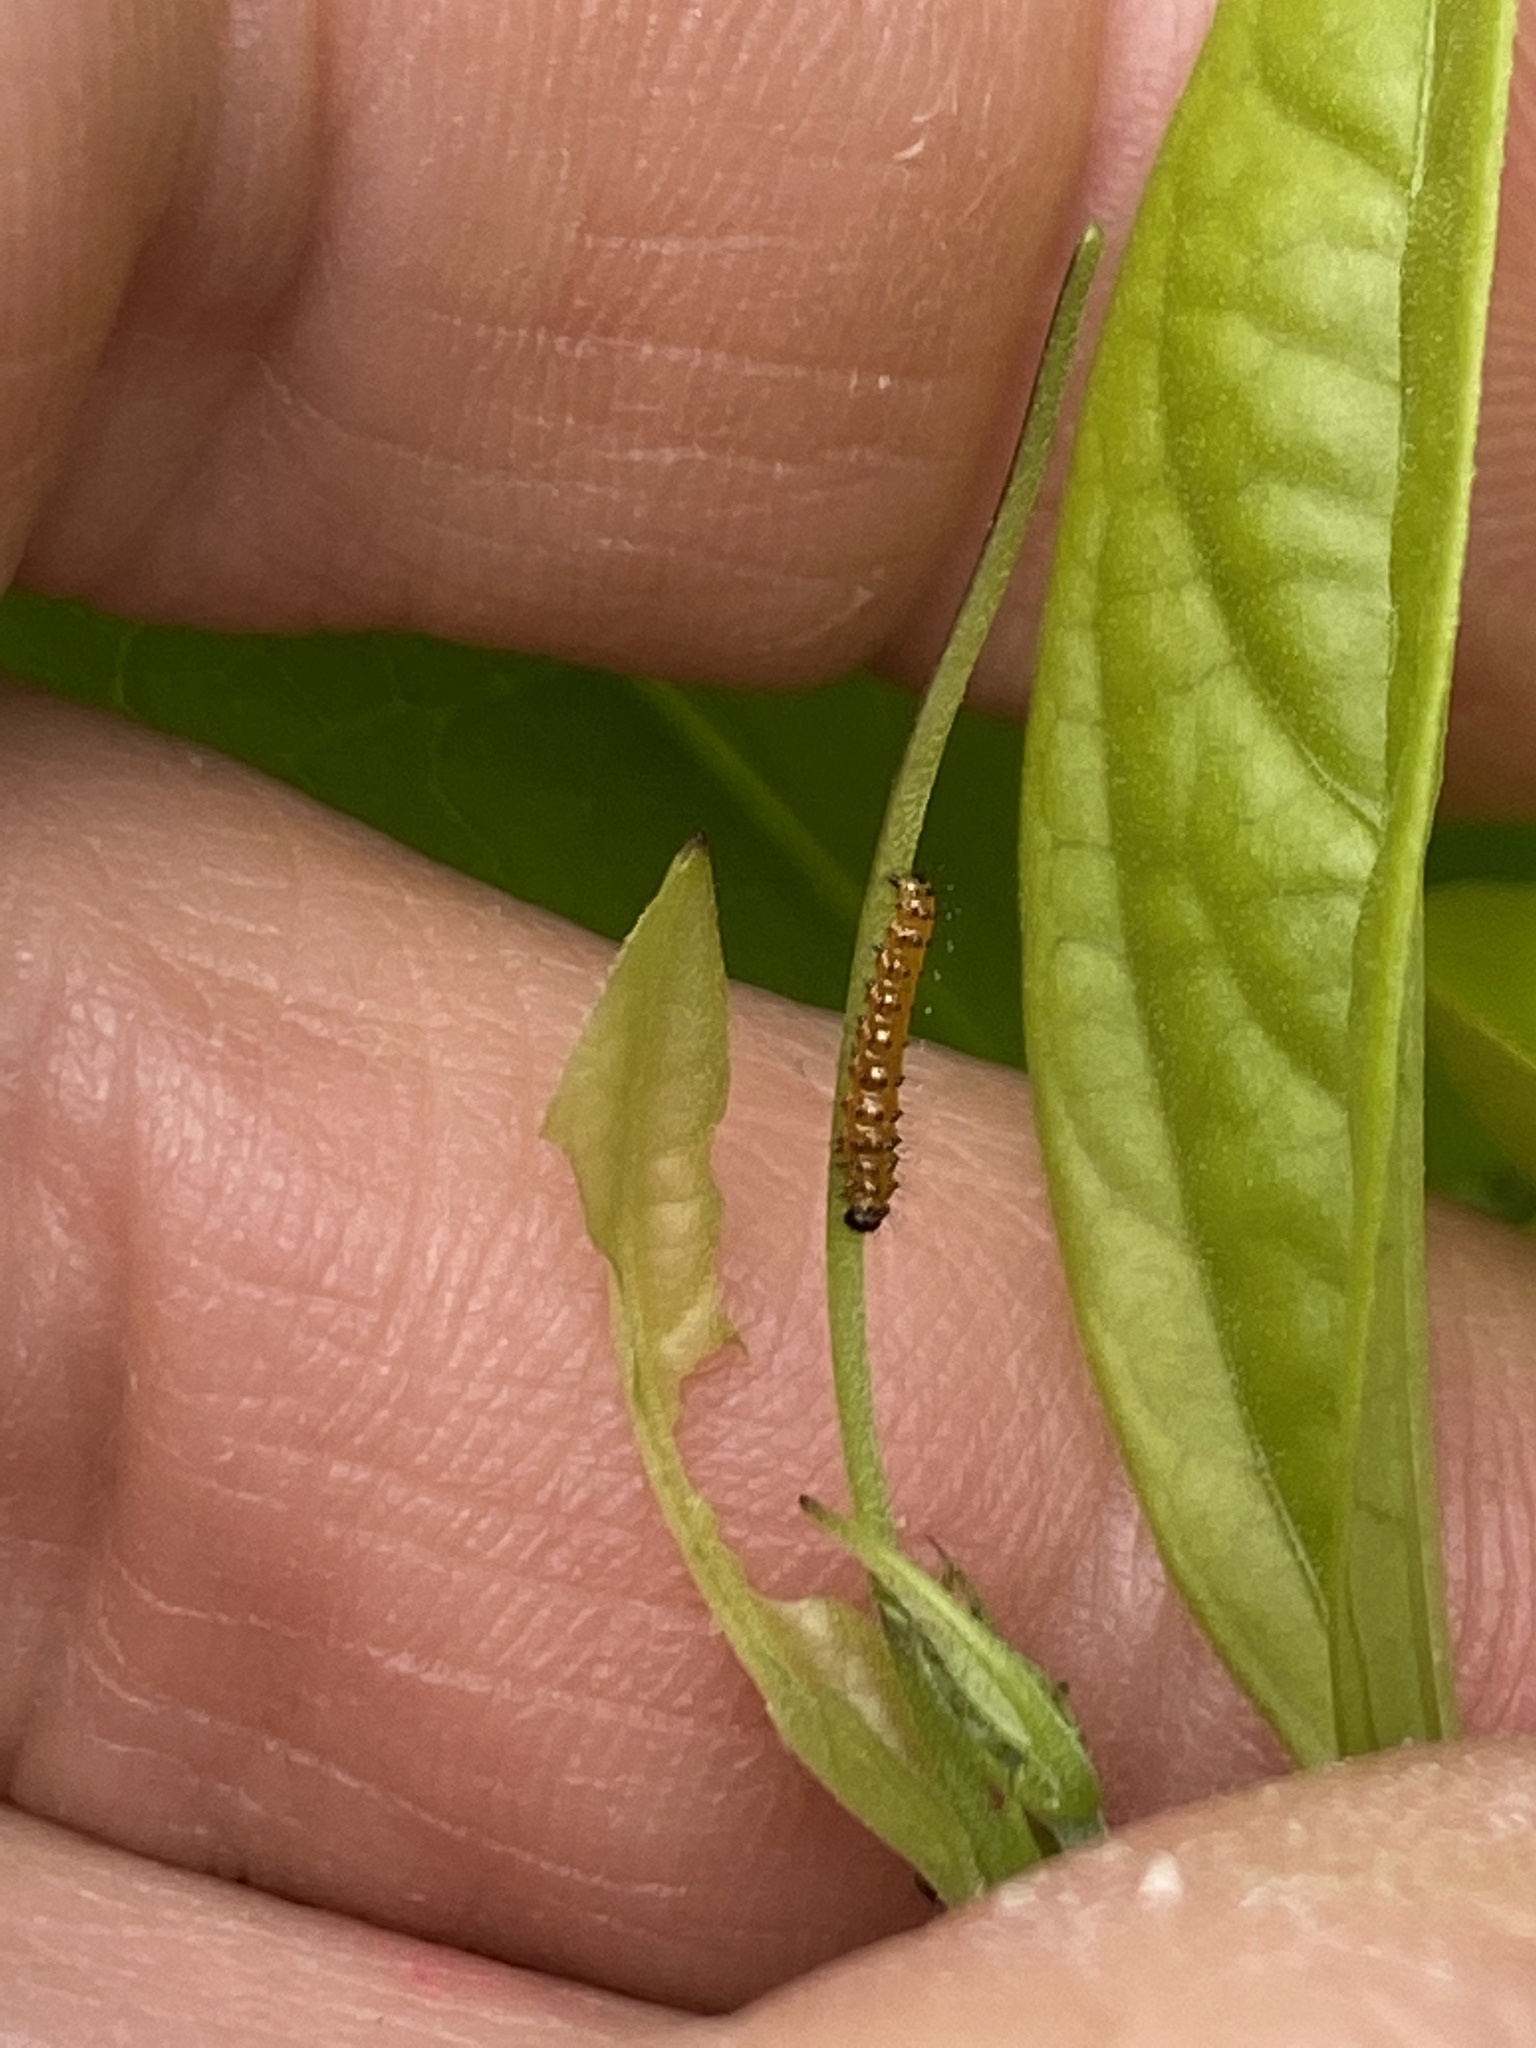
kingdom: Animalia
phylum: Arthropoda
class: Insecta
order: Lepidoptera
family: Nymphalidae
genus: Dione
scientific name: Dione vanillae
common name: Gulf fritillary
